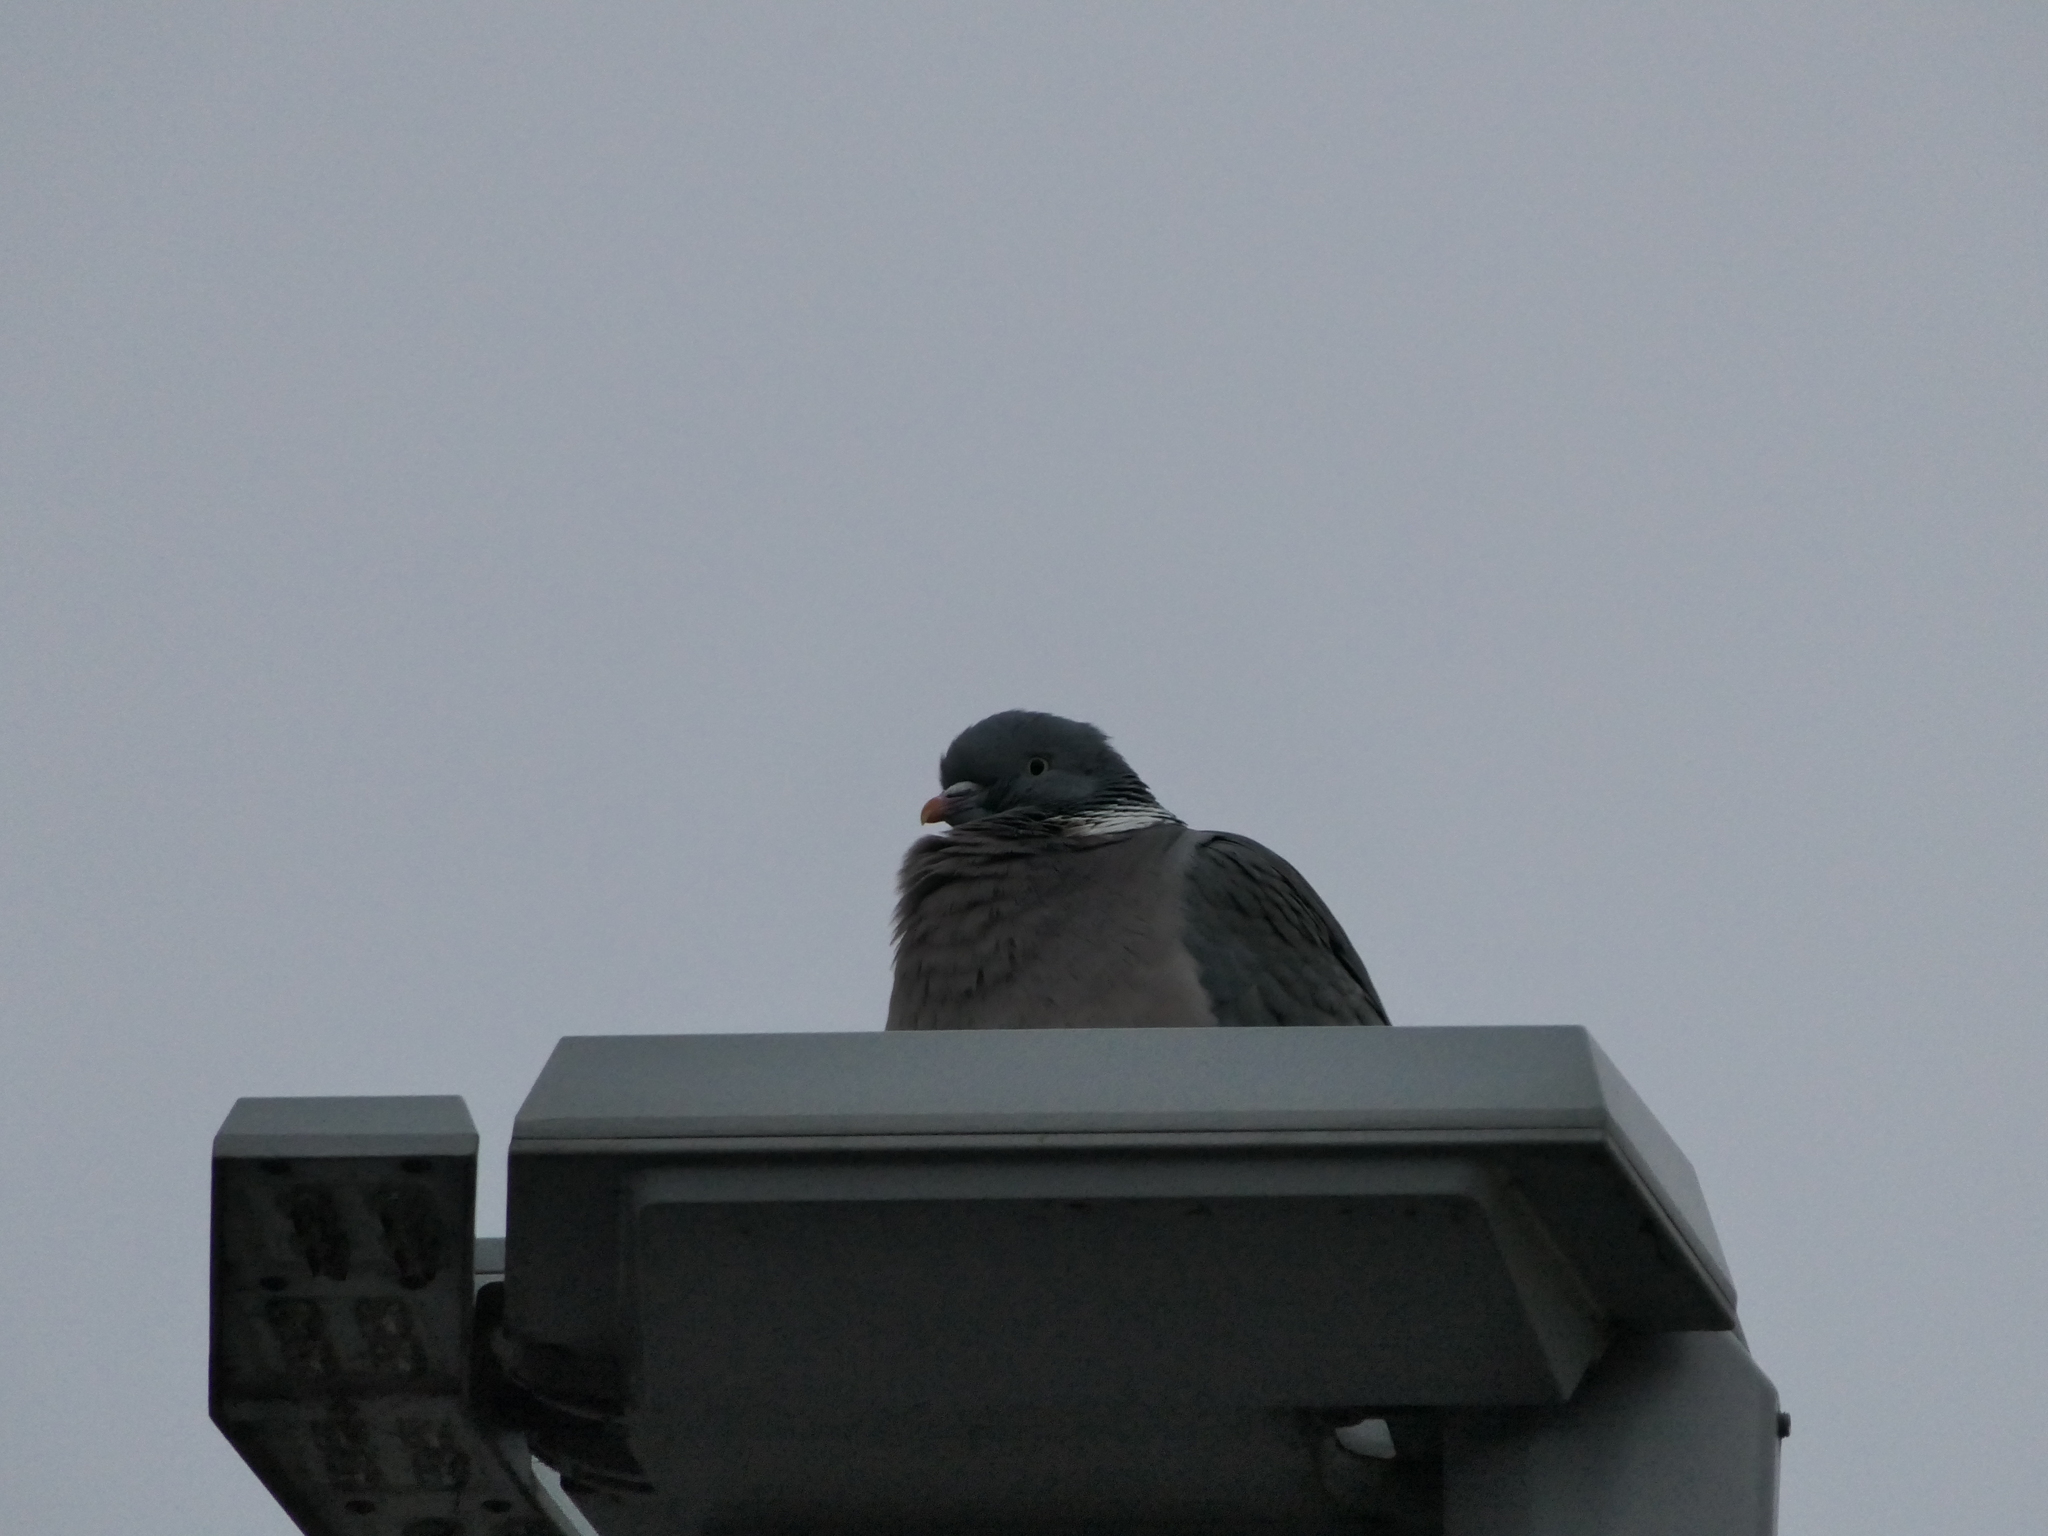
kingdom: Animalia
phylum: Chordata
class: Aves
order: Columbiformes
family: Columbidae
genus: Columba
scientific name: Columba palumbus
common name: Common wood pigeon
